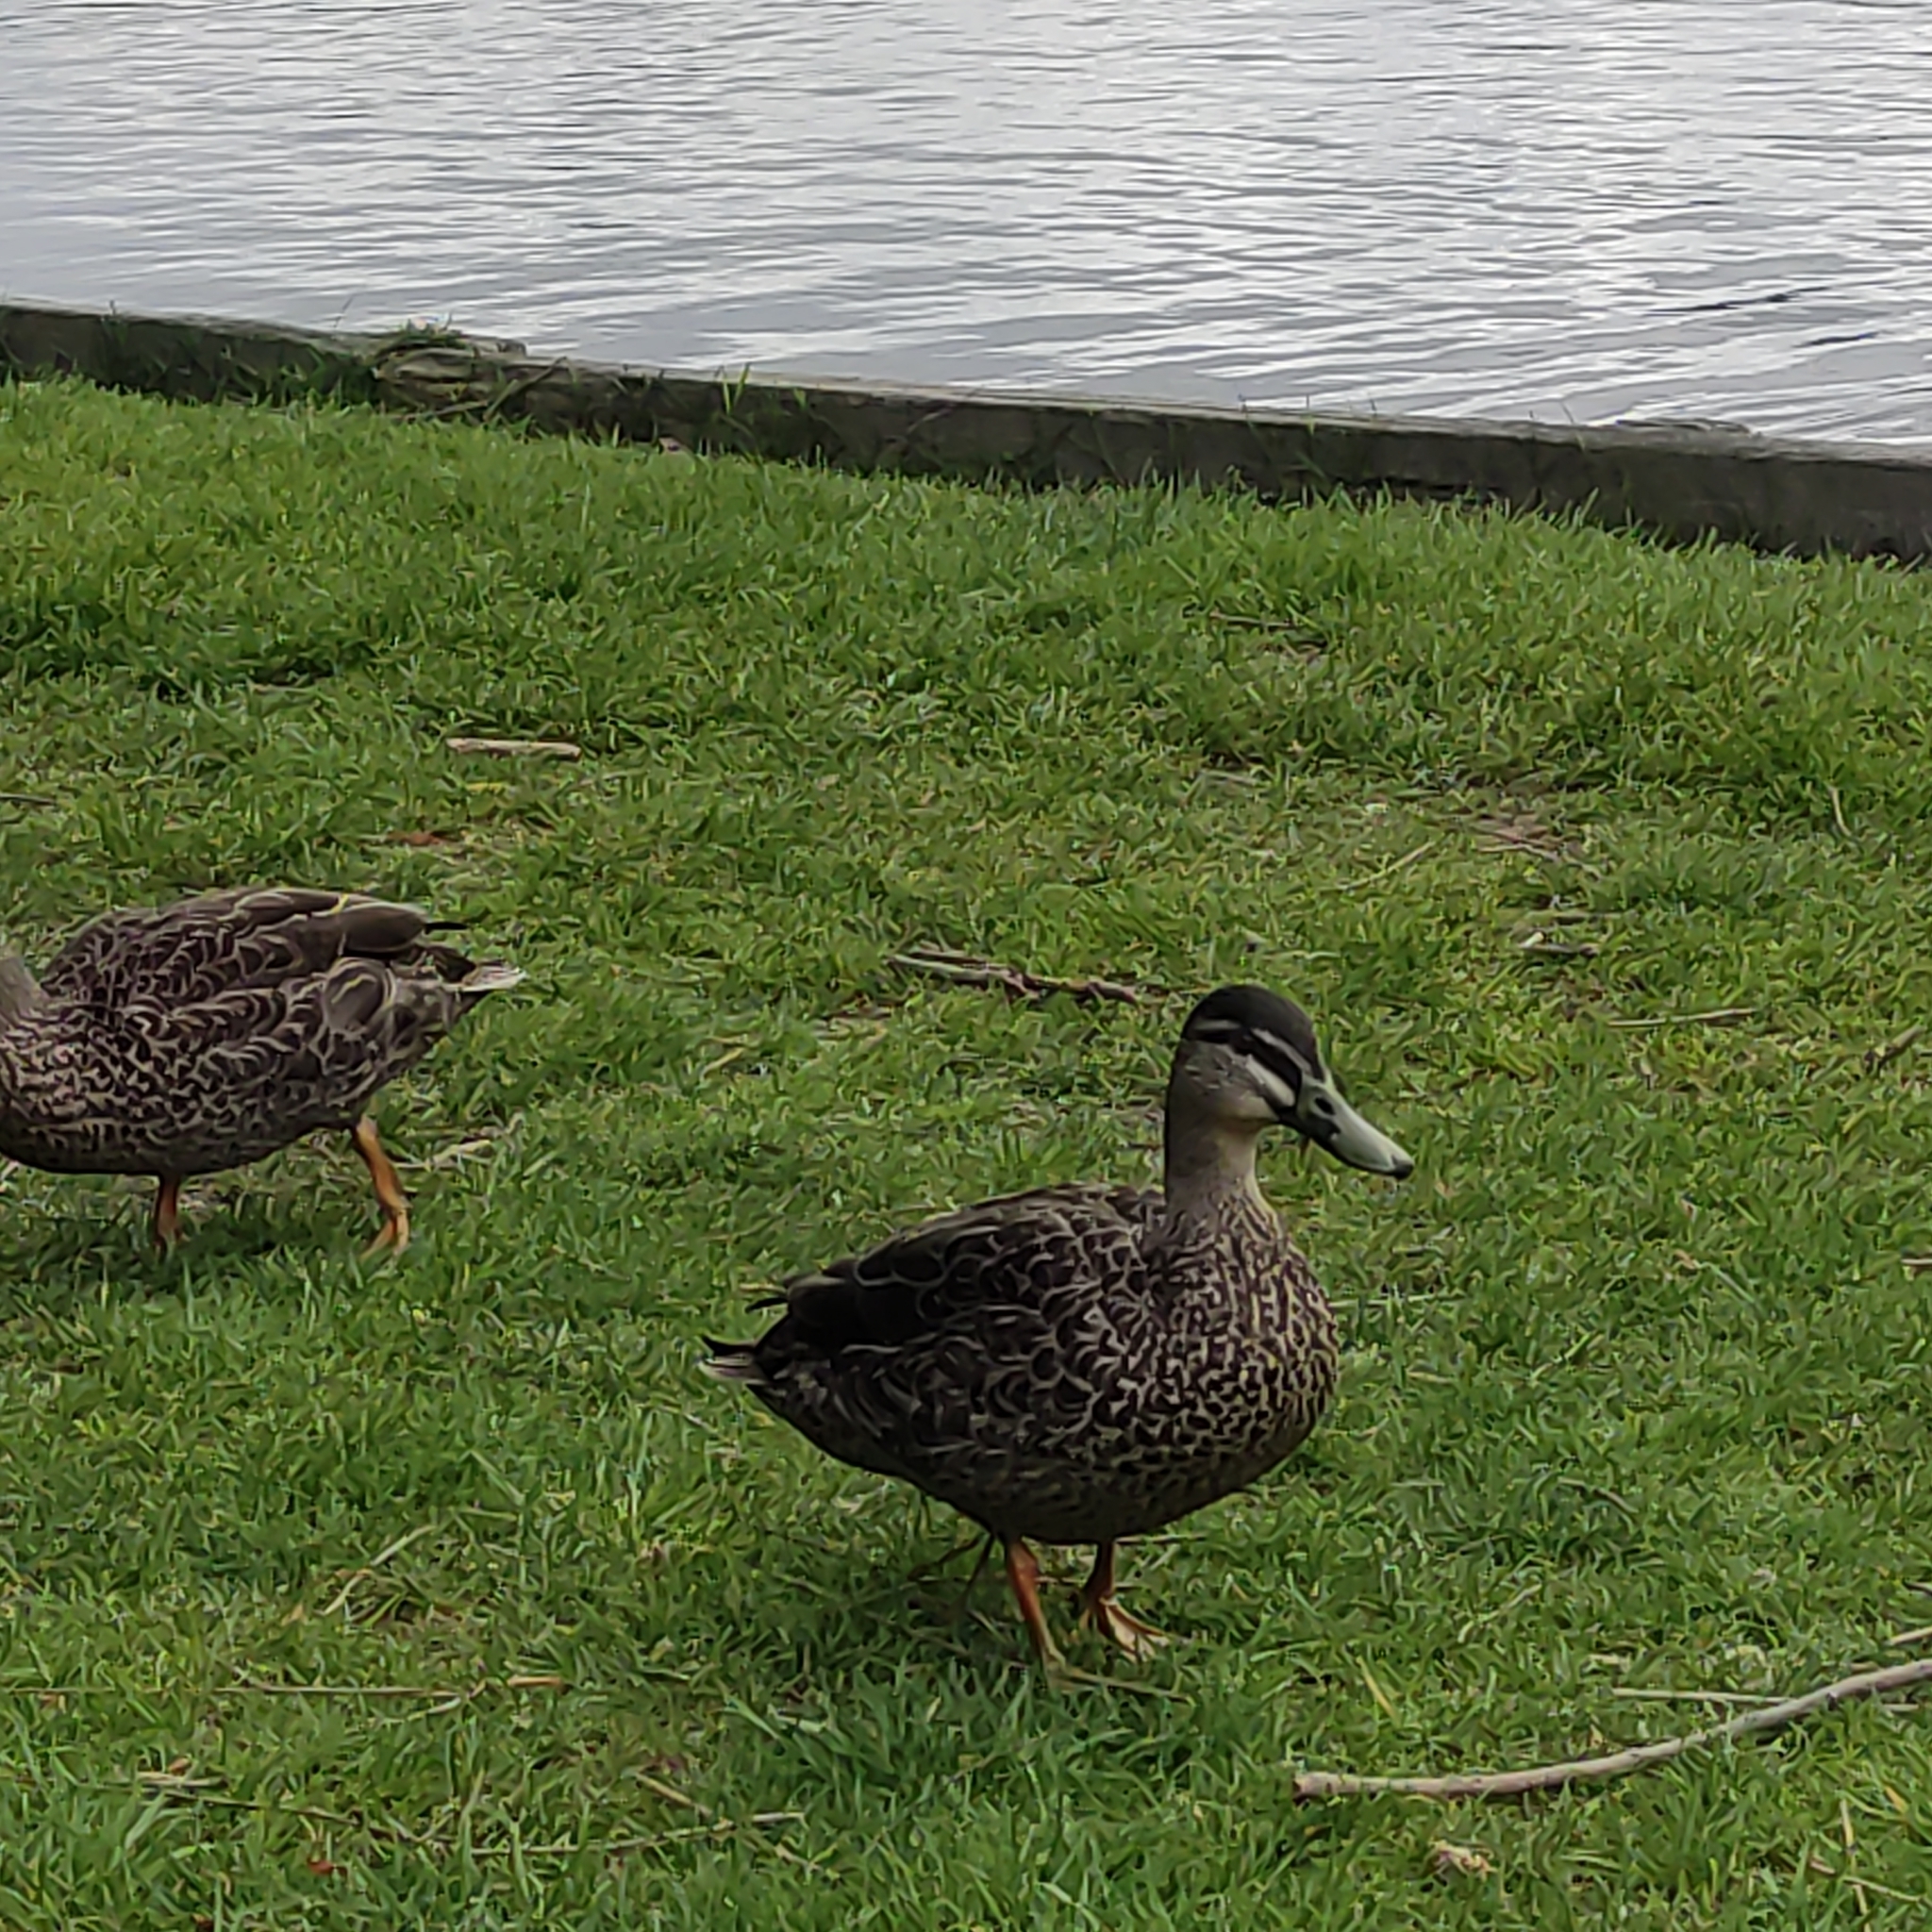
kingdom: Animalia
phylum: Chordata
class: Aves
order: Anseriformes
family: Anatidae
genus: Anas
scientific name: Anas
